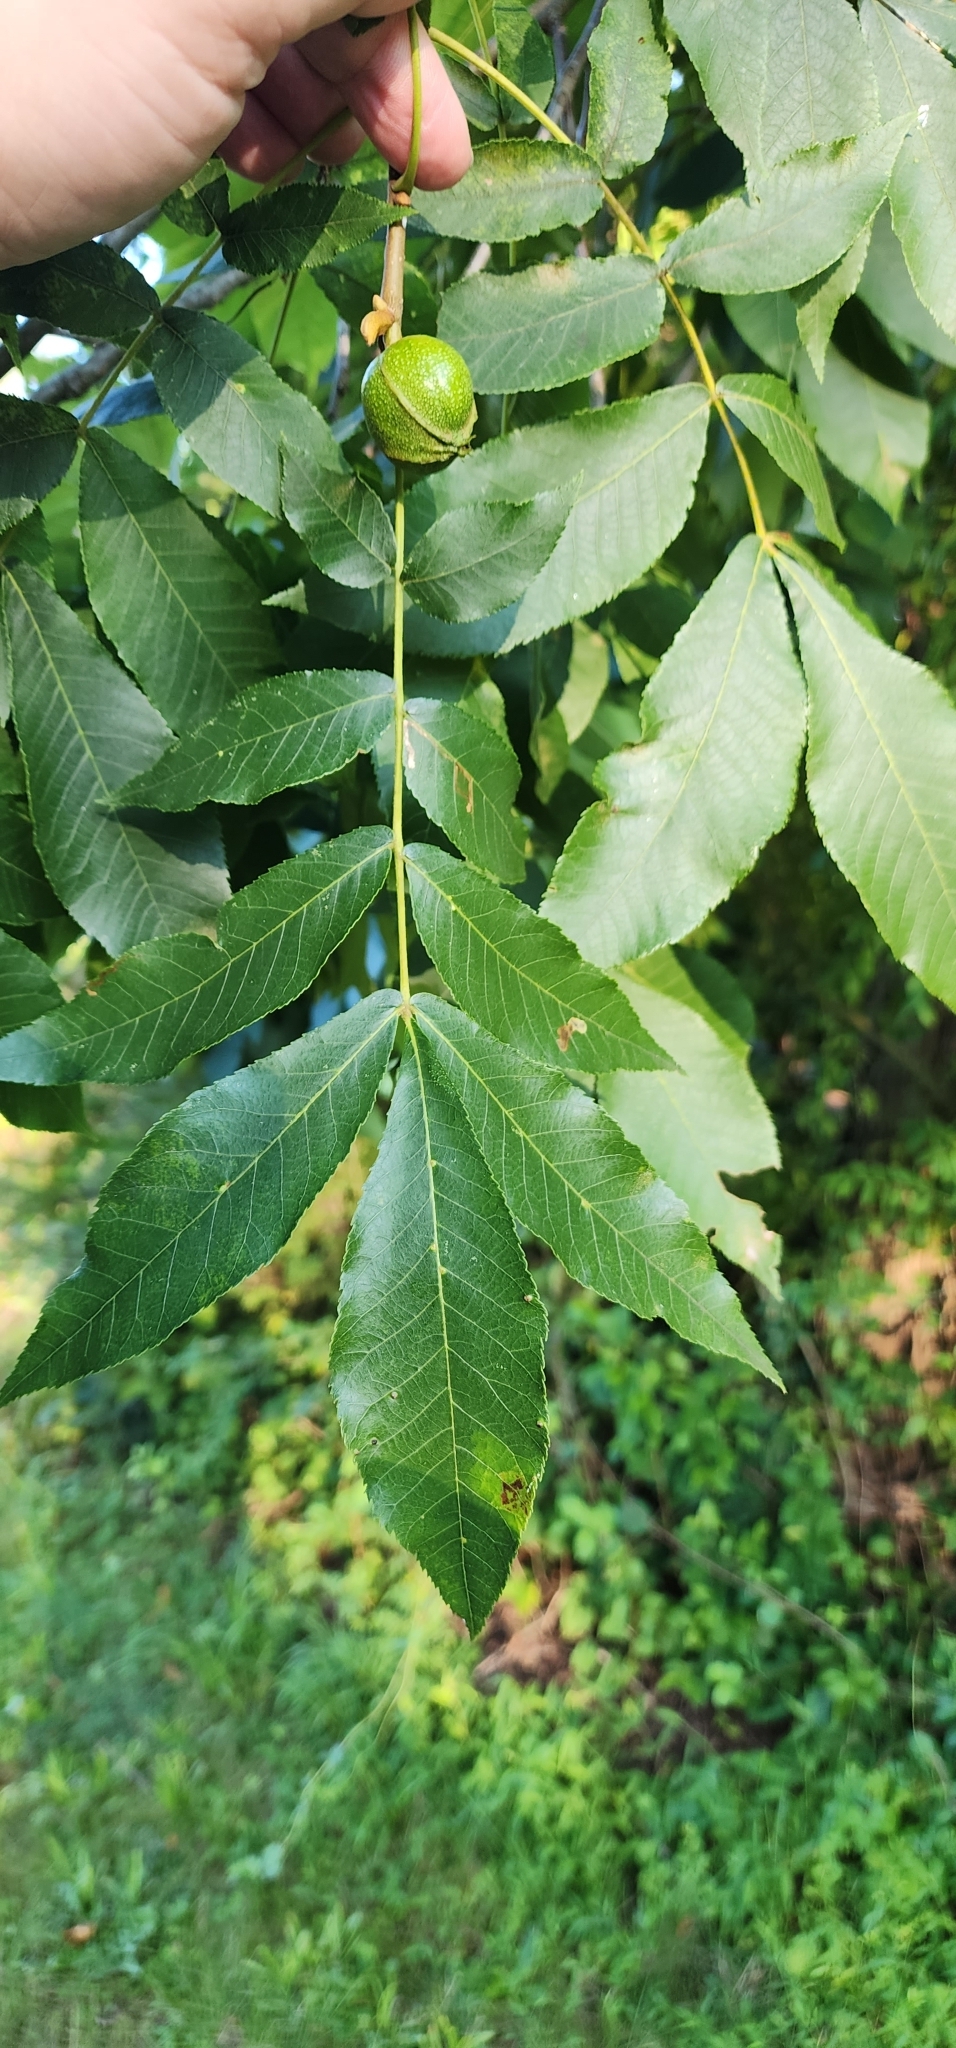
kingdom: Plantae
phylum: Tracheophyta
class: Magnoliopsida
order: Fagales
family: Juglandaceae
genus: Carya
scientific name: Carya cordiformis
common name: Bitternut hickory
